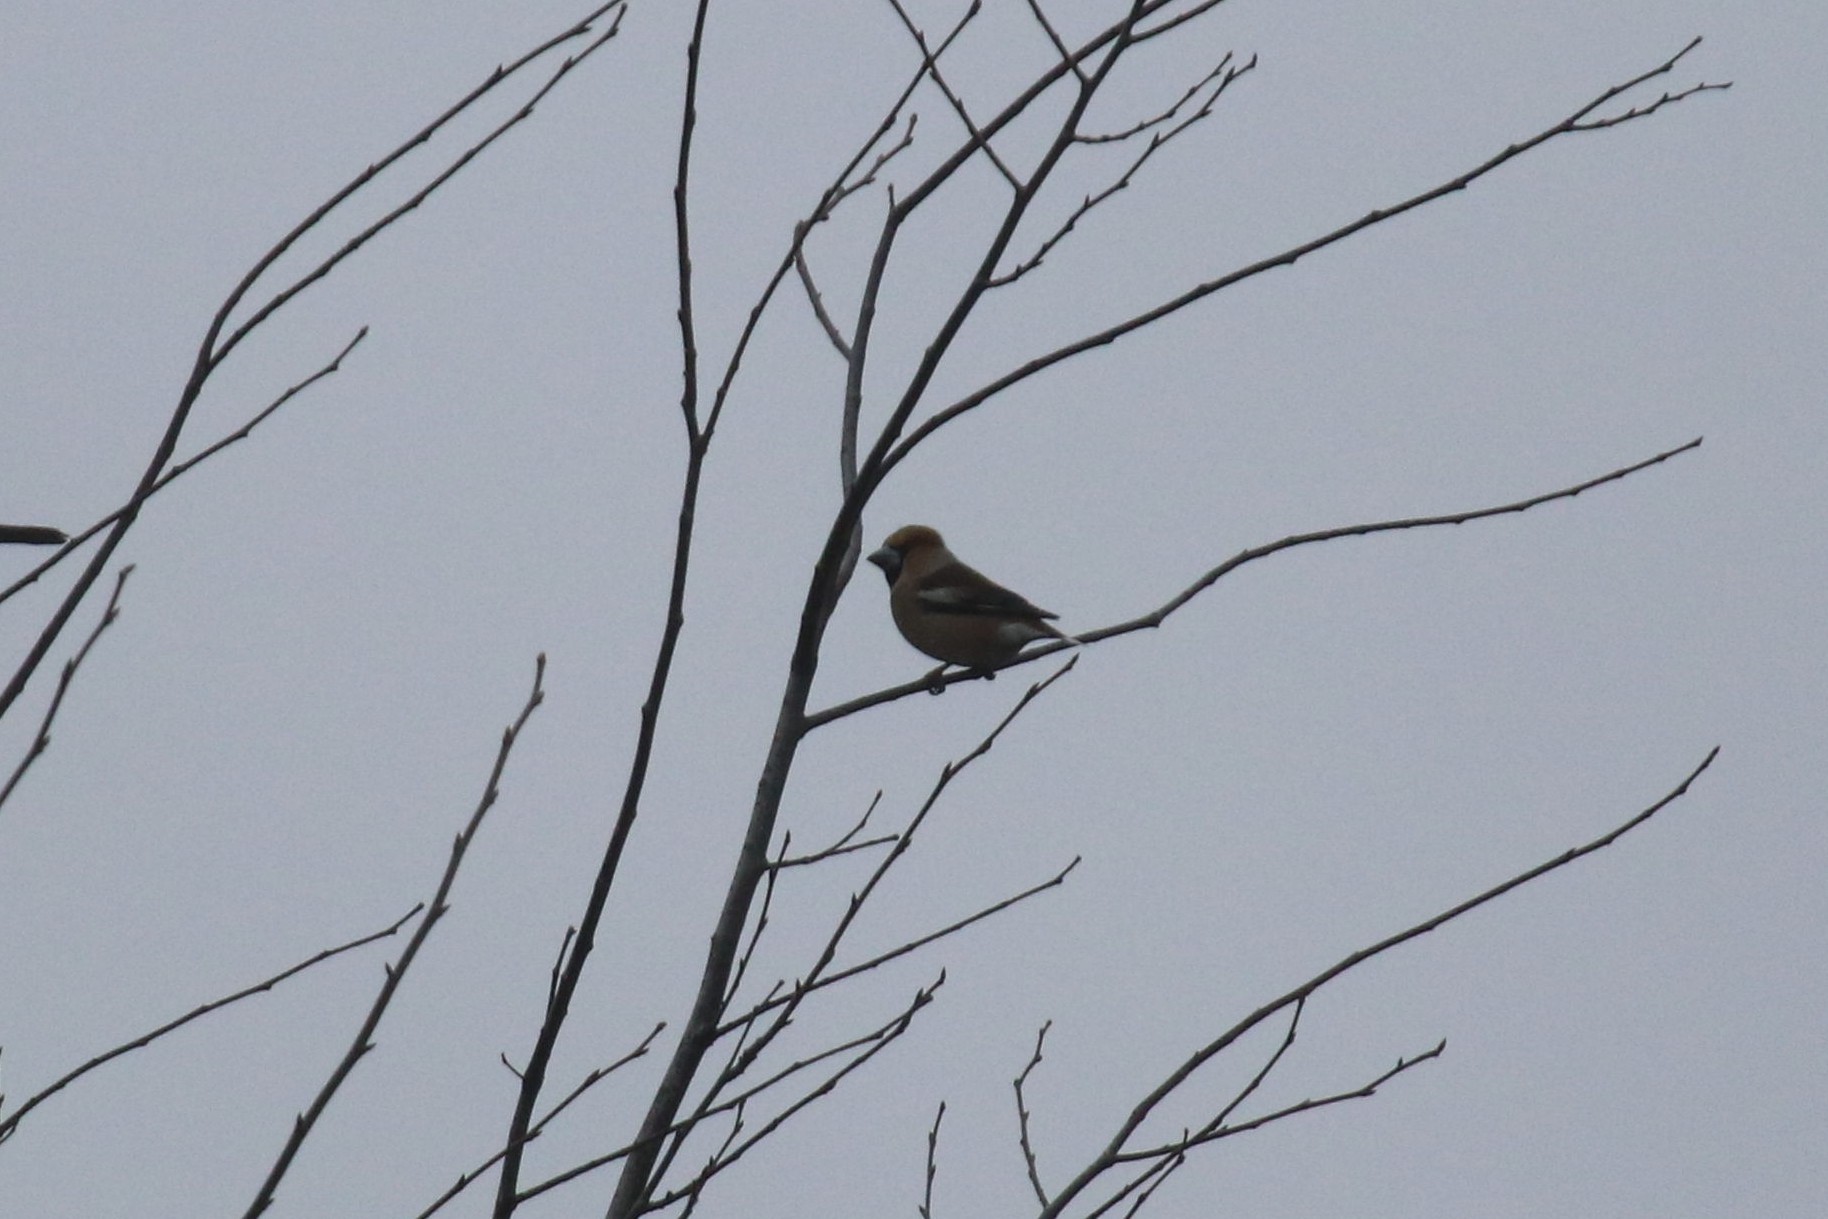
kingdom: Animalia
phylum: Chordata
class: Aves
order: Passeriformes
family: Fringillidae
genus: Coccothraustes
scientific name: Coccothraustes coccothraustes
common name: Hawfinch
